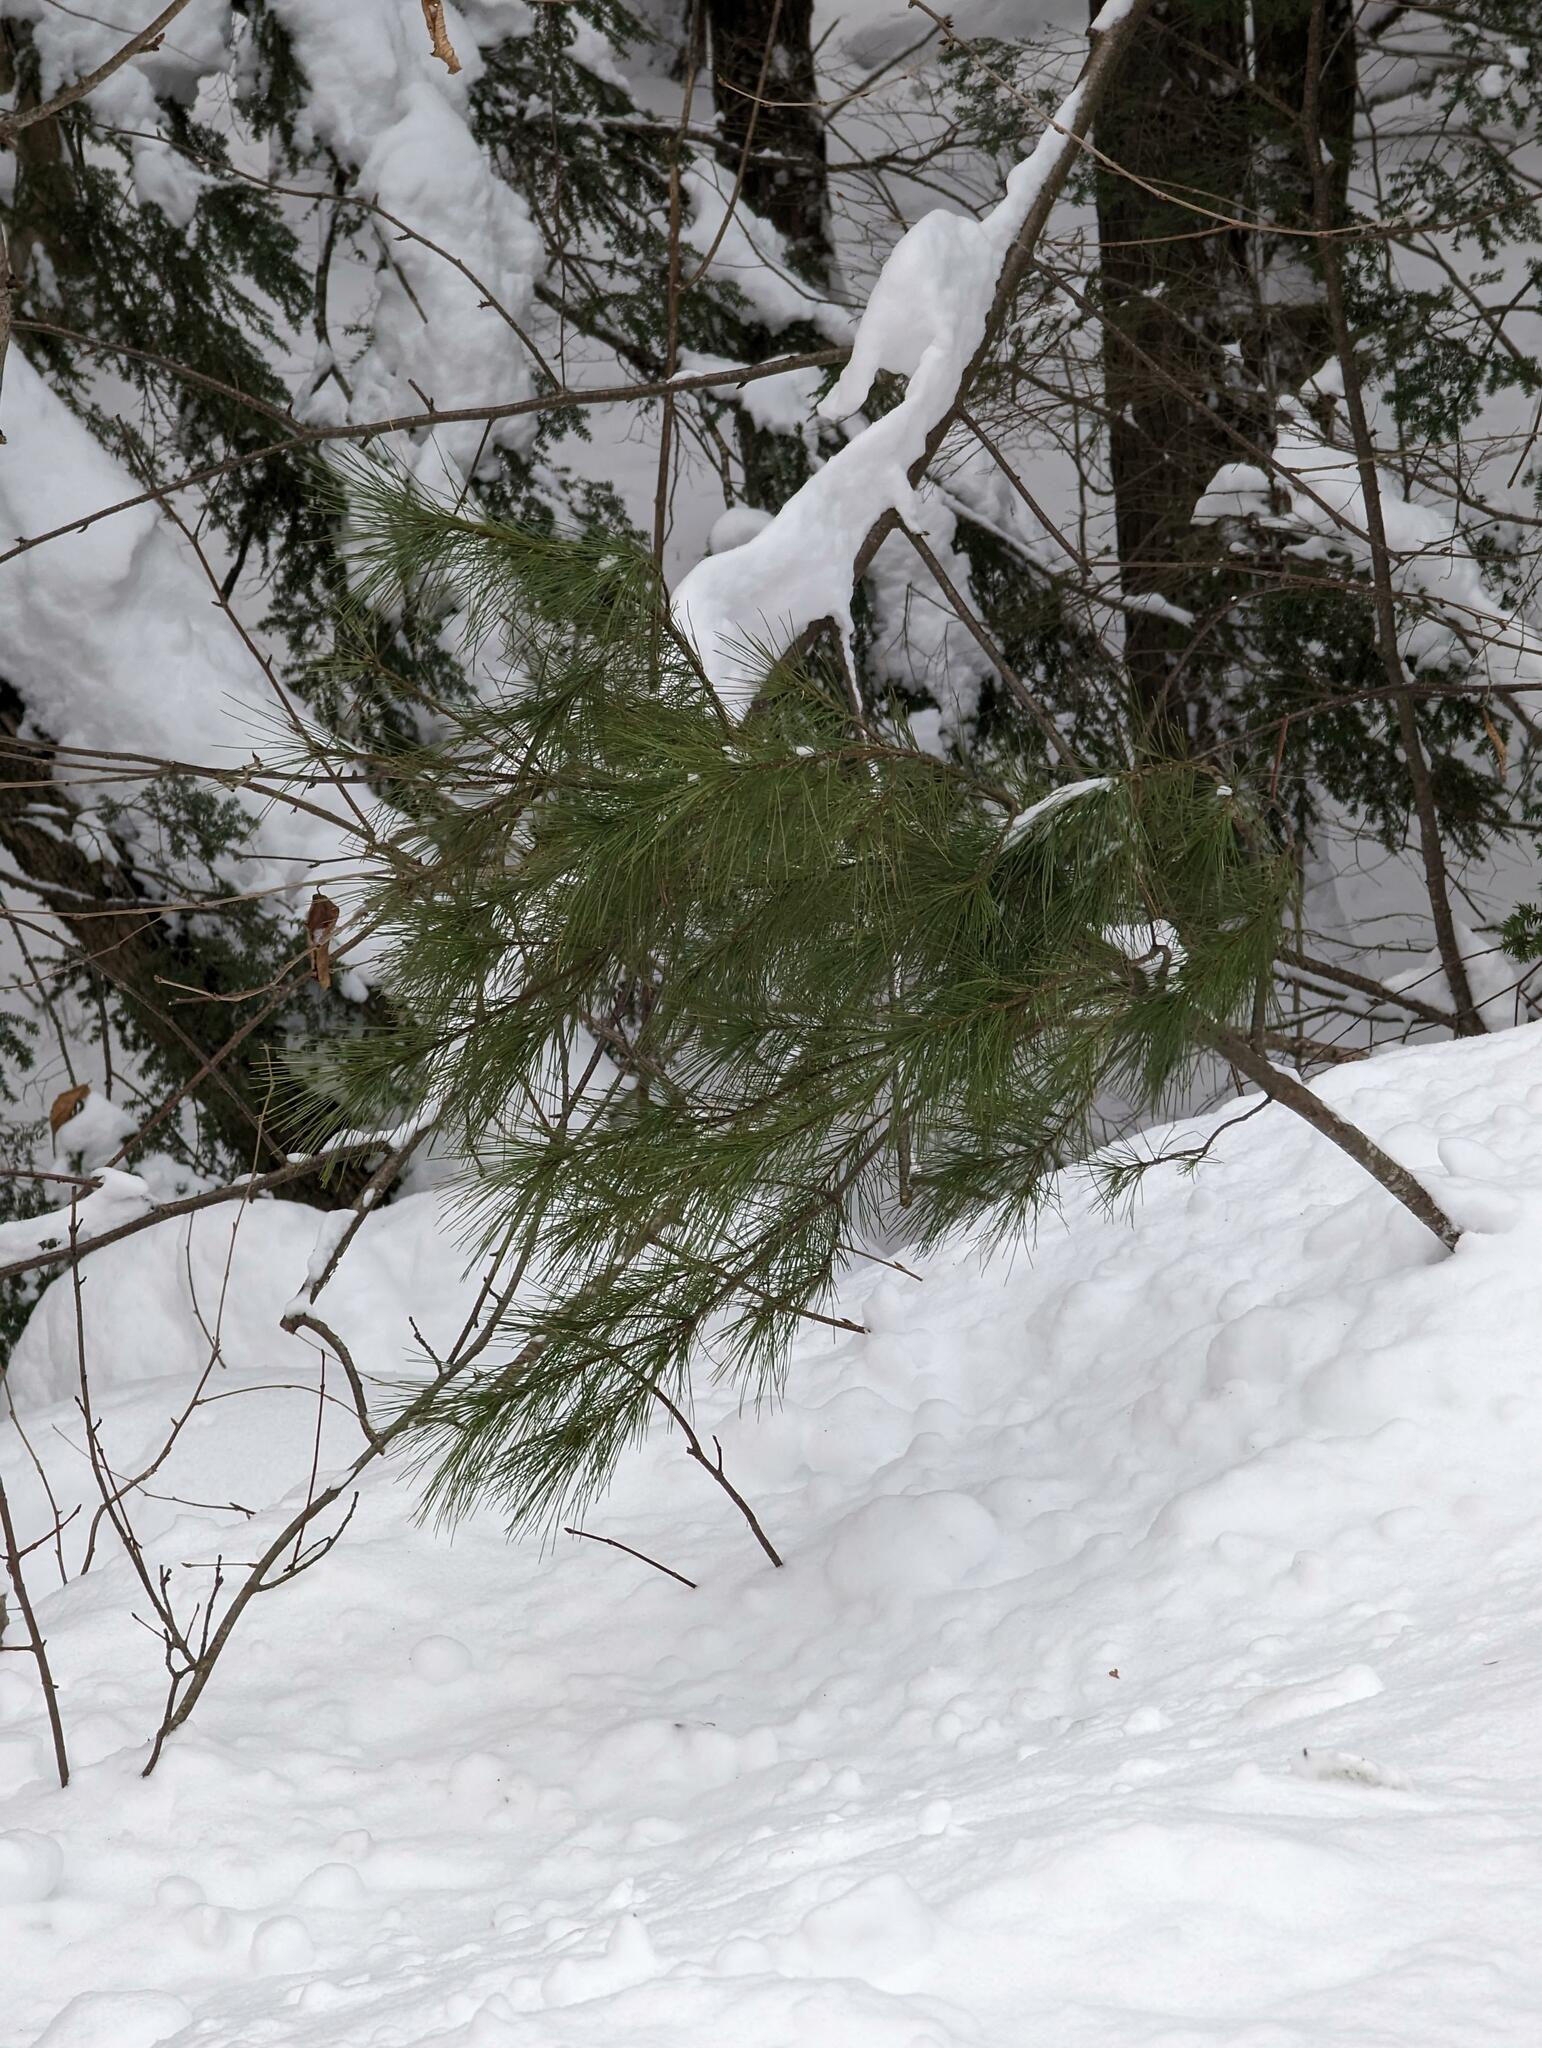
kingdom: Plantae
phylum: Tracheophyta
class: Pinopsida
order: Pinales
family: Pinaceae
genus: Pinus
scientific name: Pinus strobus
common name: Weymouth pine
